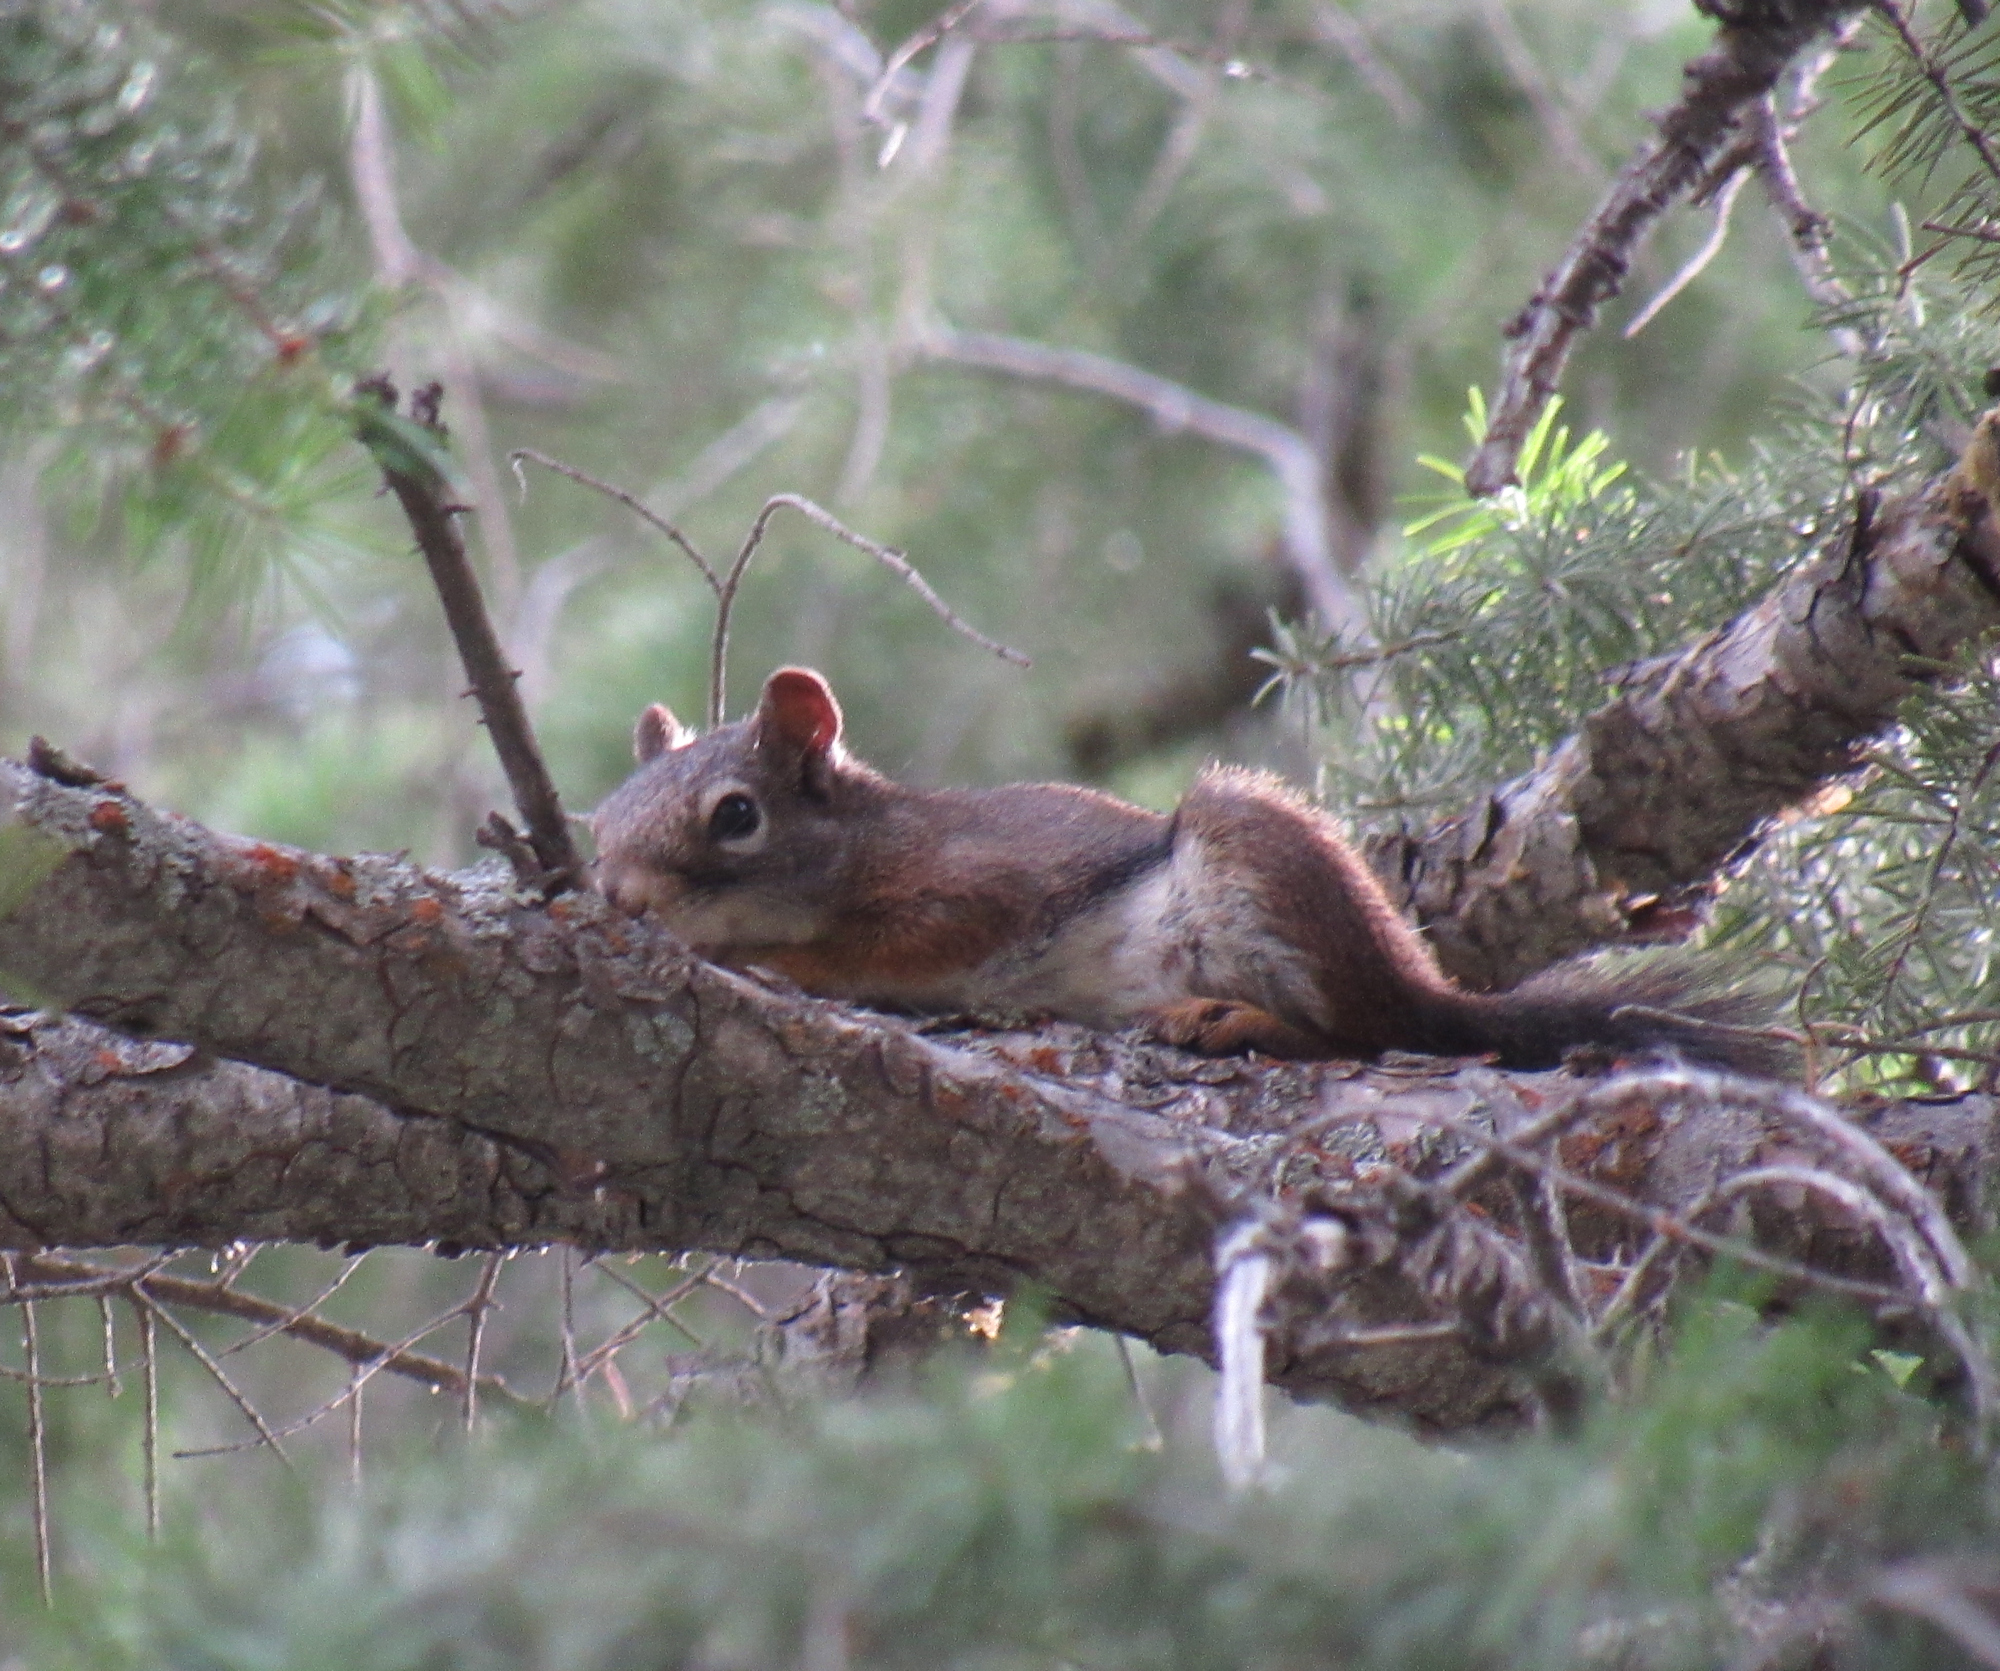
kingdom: Animalia
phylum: Chordata
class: Mammalia
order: Rodentia
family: Sciuridae
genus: Tamiasciurus
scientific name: Tamiasciurus hudsonicus
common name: Red squirrel
